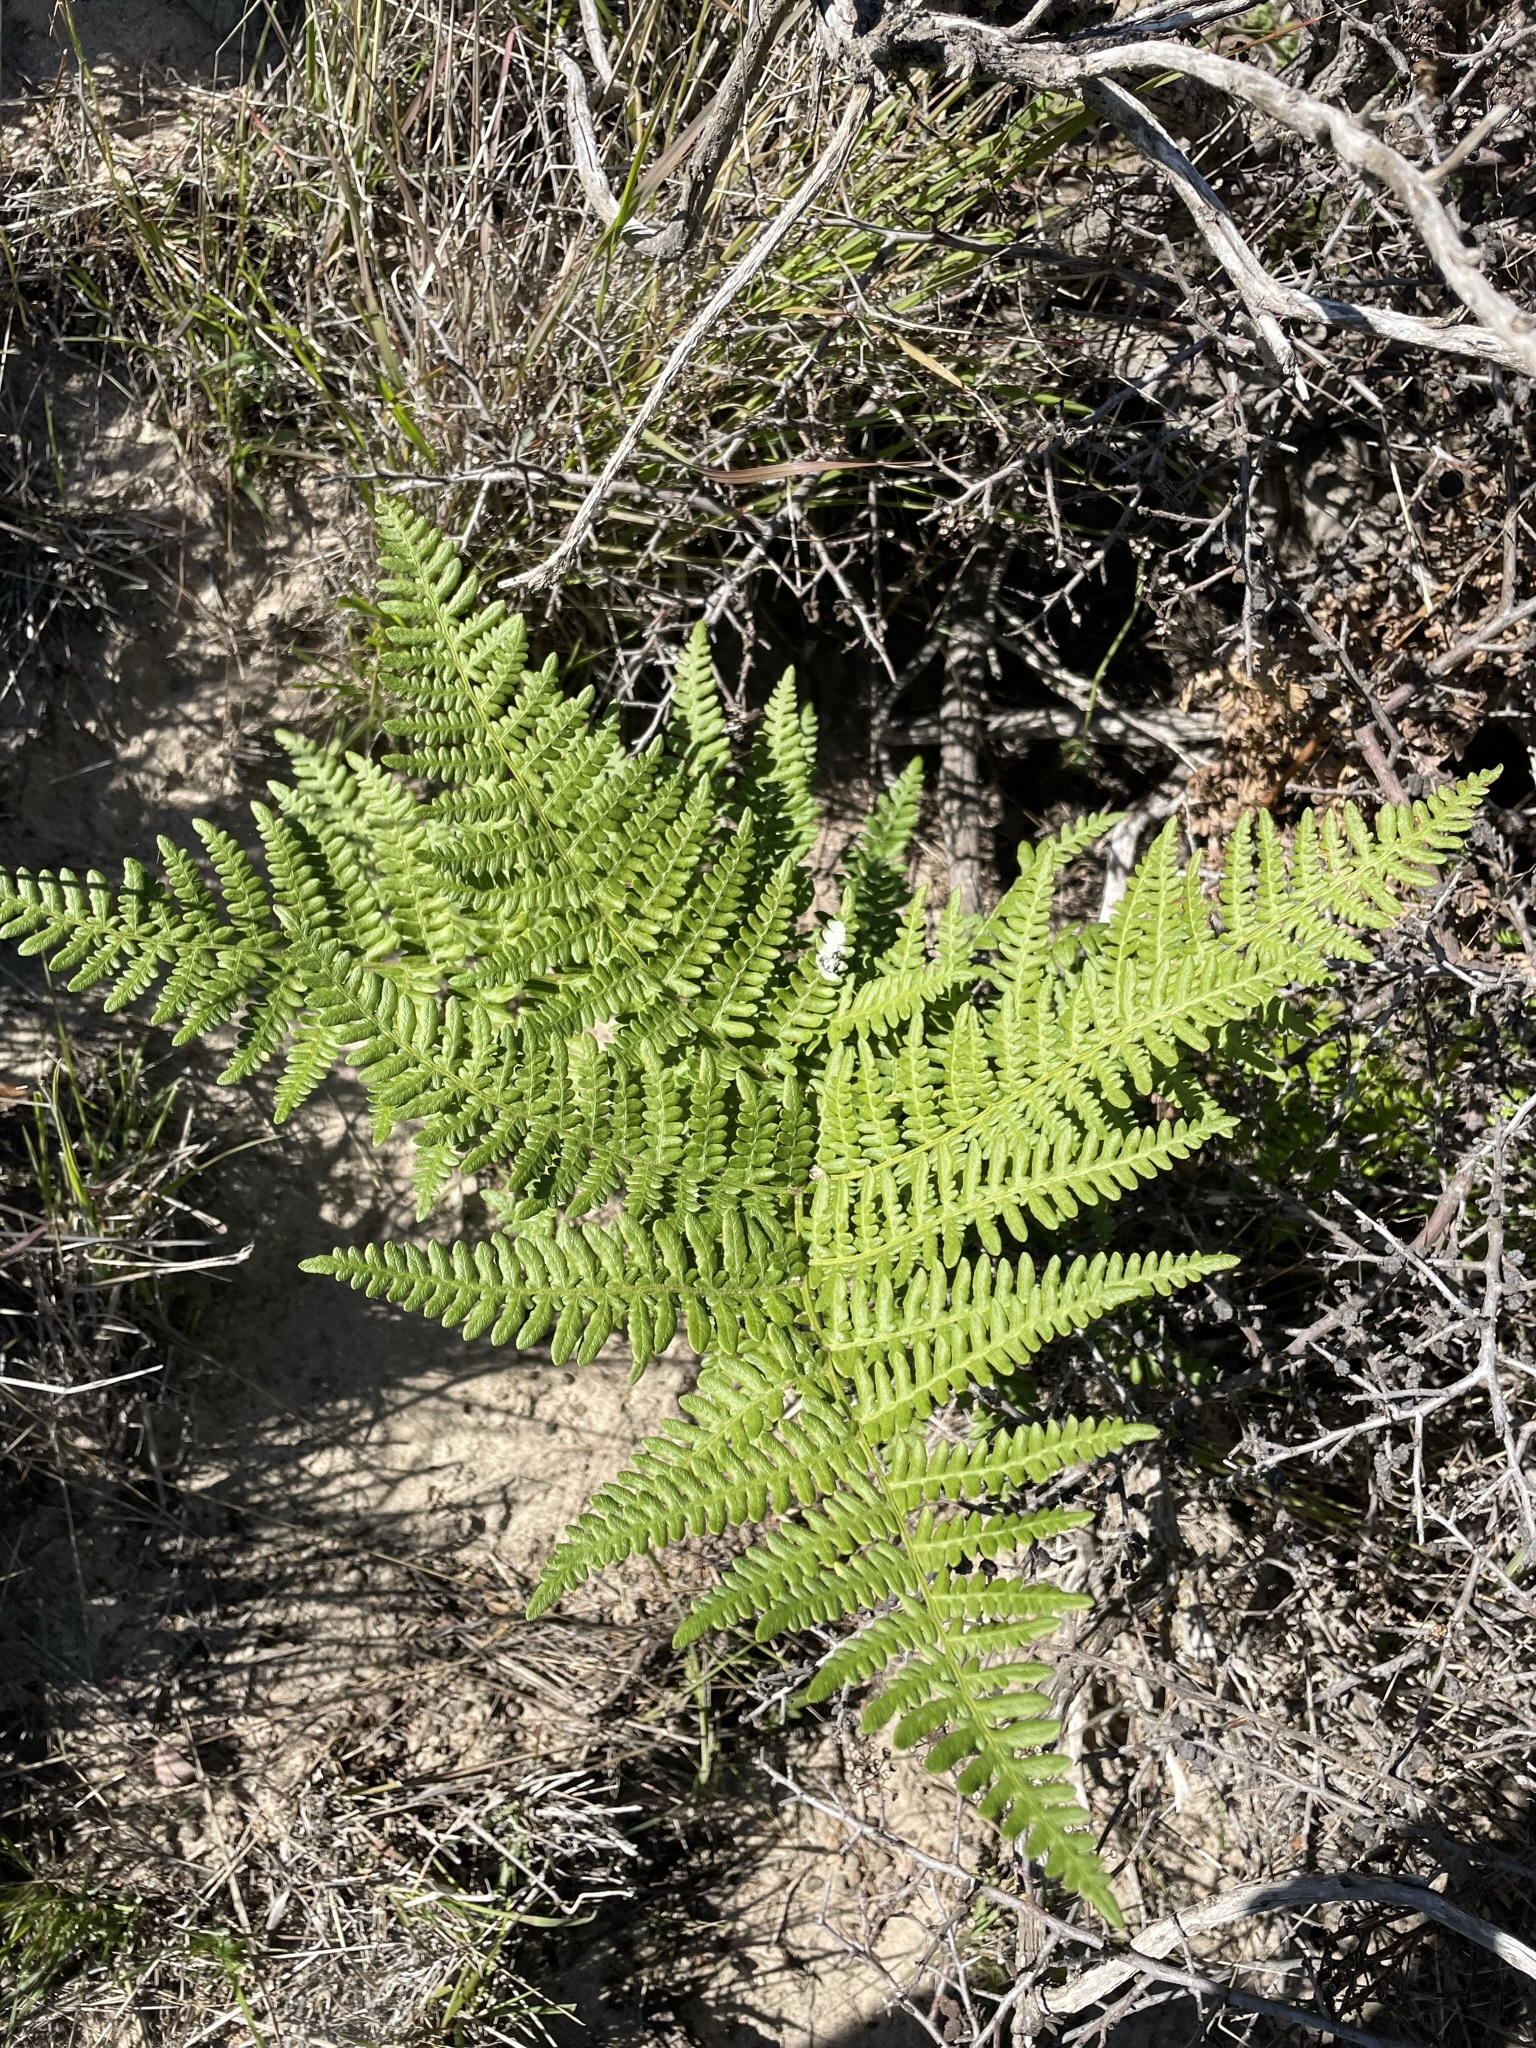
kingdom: Plantae
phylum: Tracheophyta
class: Polypodiopsida
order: Polypodiales
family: Dennstaedtiaceae
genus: Pteridium
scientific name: Pteridium aquilinum
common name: Bracken
